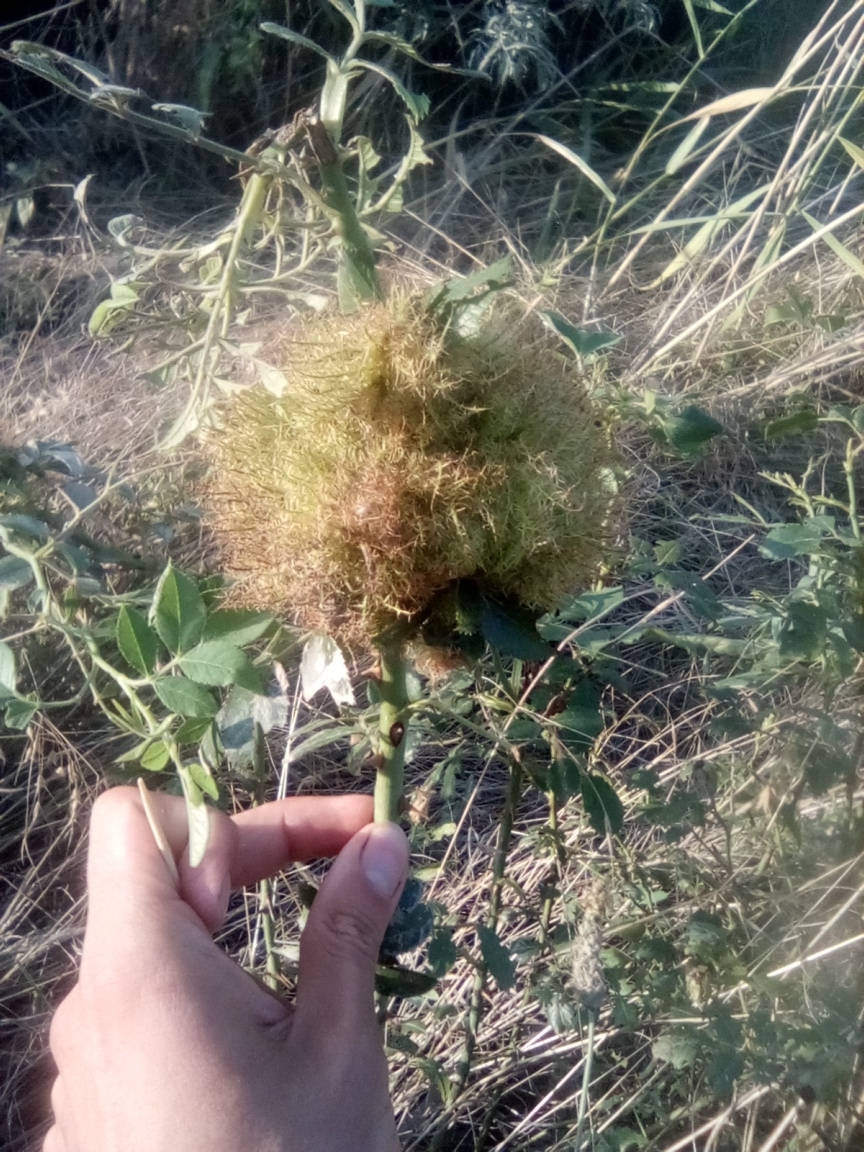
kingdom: Animalia
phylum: Arthropoda
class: Insecta
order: Hymenoptera
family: Cynipidae
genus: Diplolepis
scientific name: Diplolepis rosae
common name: Bedeguar gall
